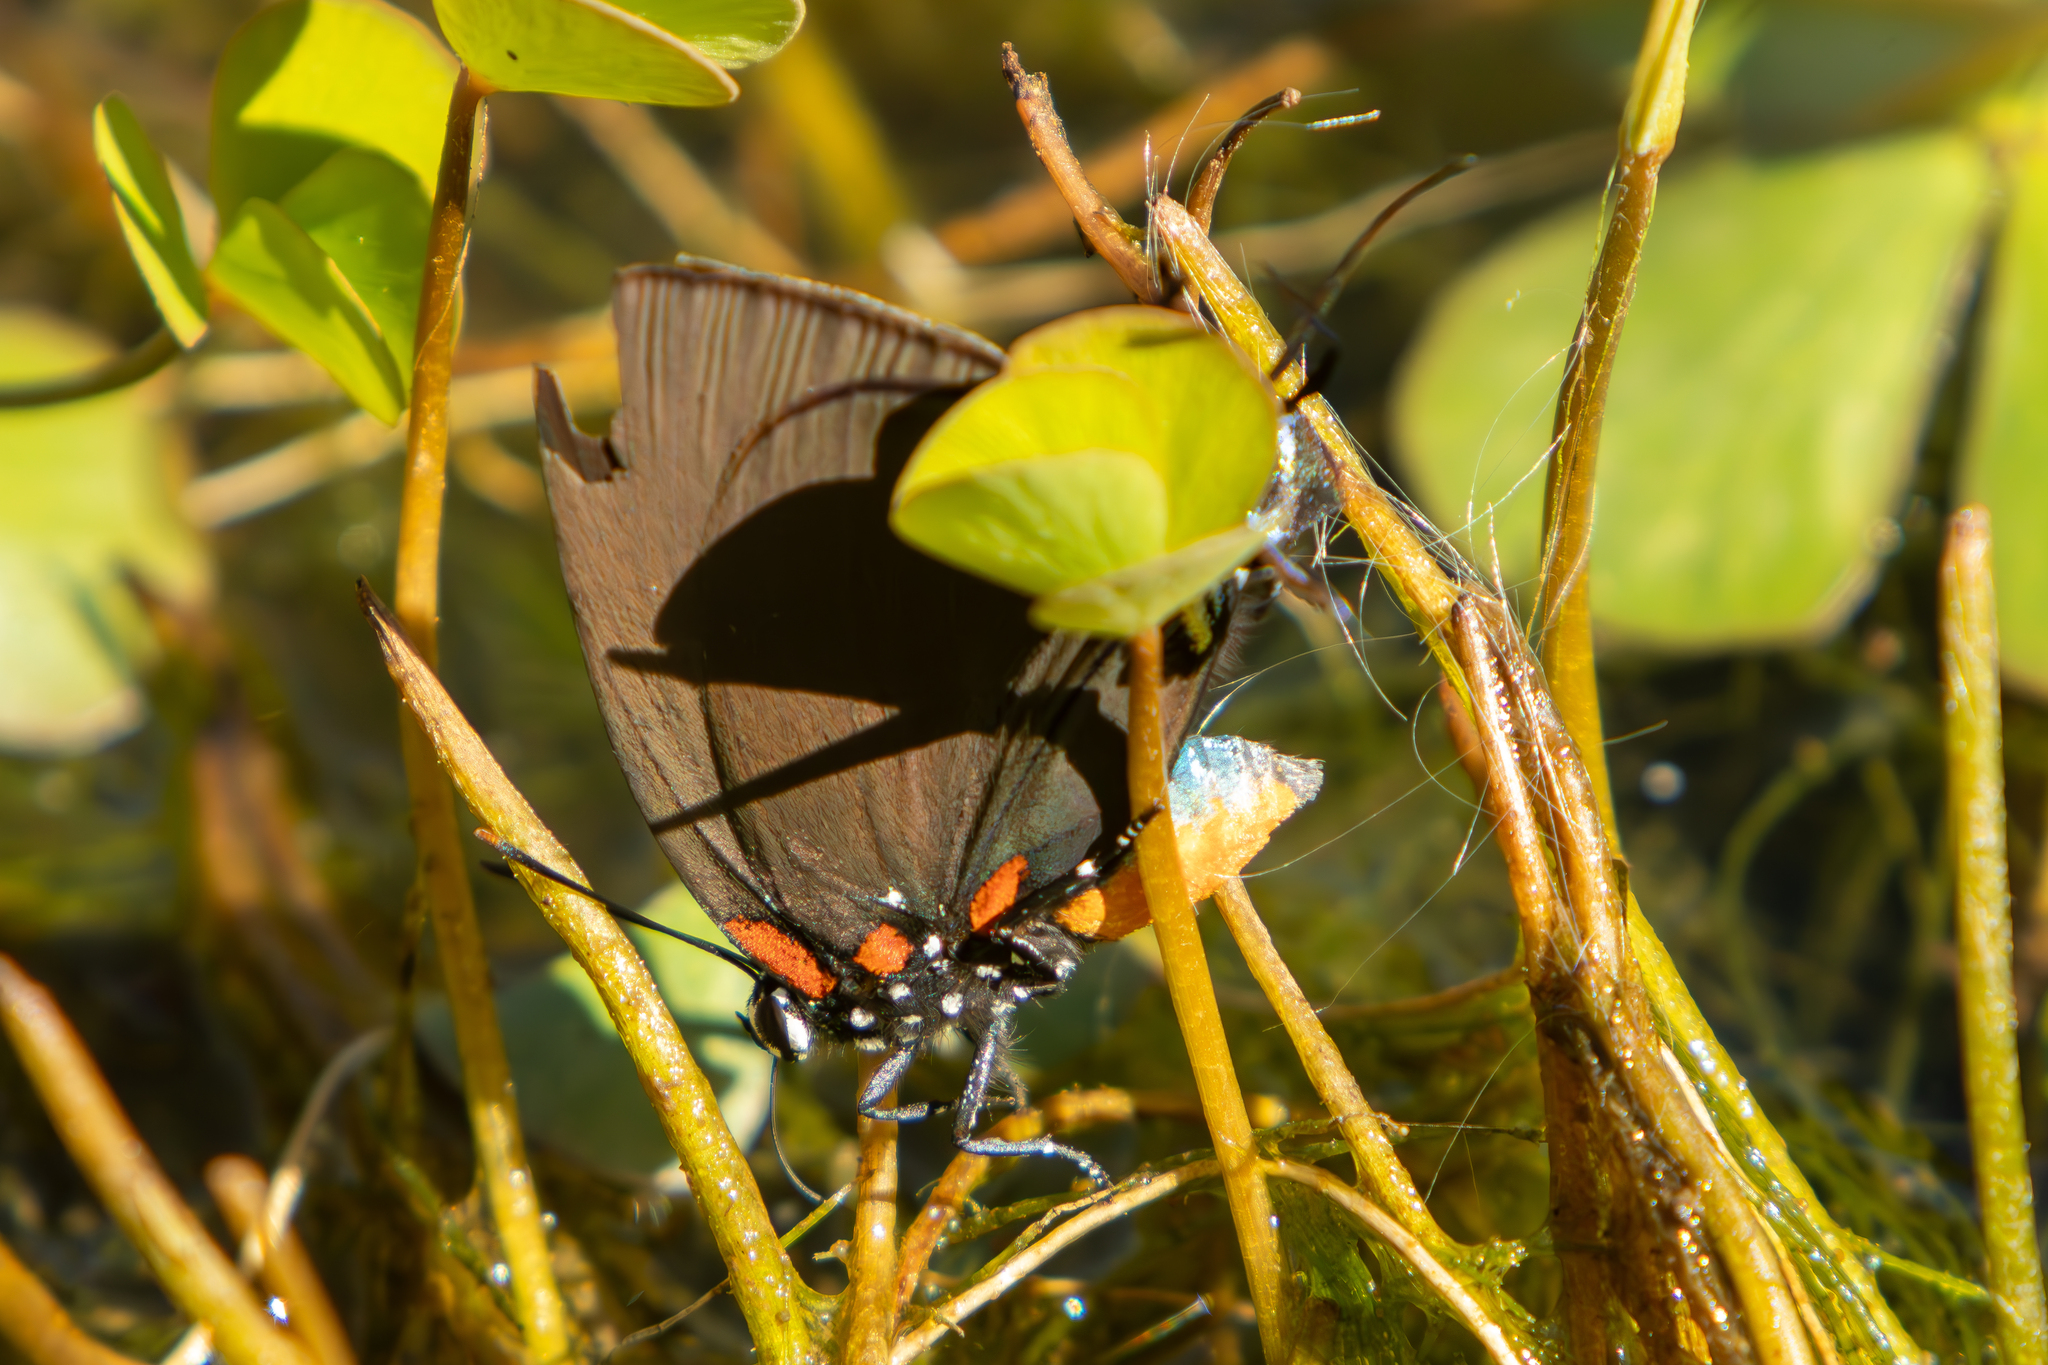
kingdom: Animalia
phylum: Arthropoda
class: Insecta
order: Lepidoptera
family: Lycaenidae
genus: Atlides
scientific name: Atlides halesus
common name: Great purple hairstreak
